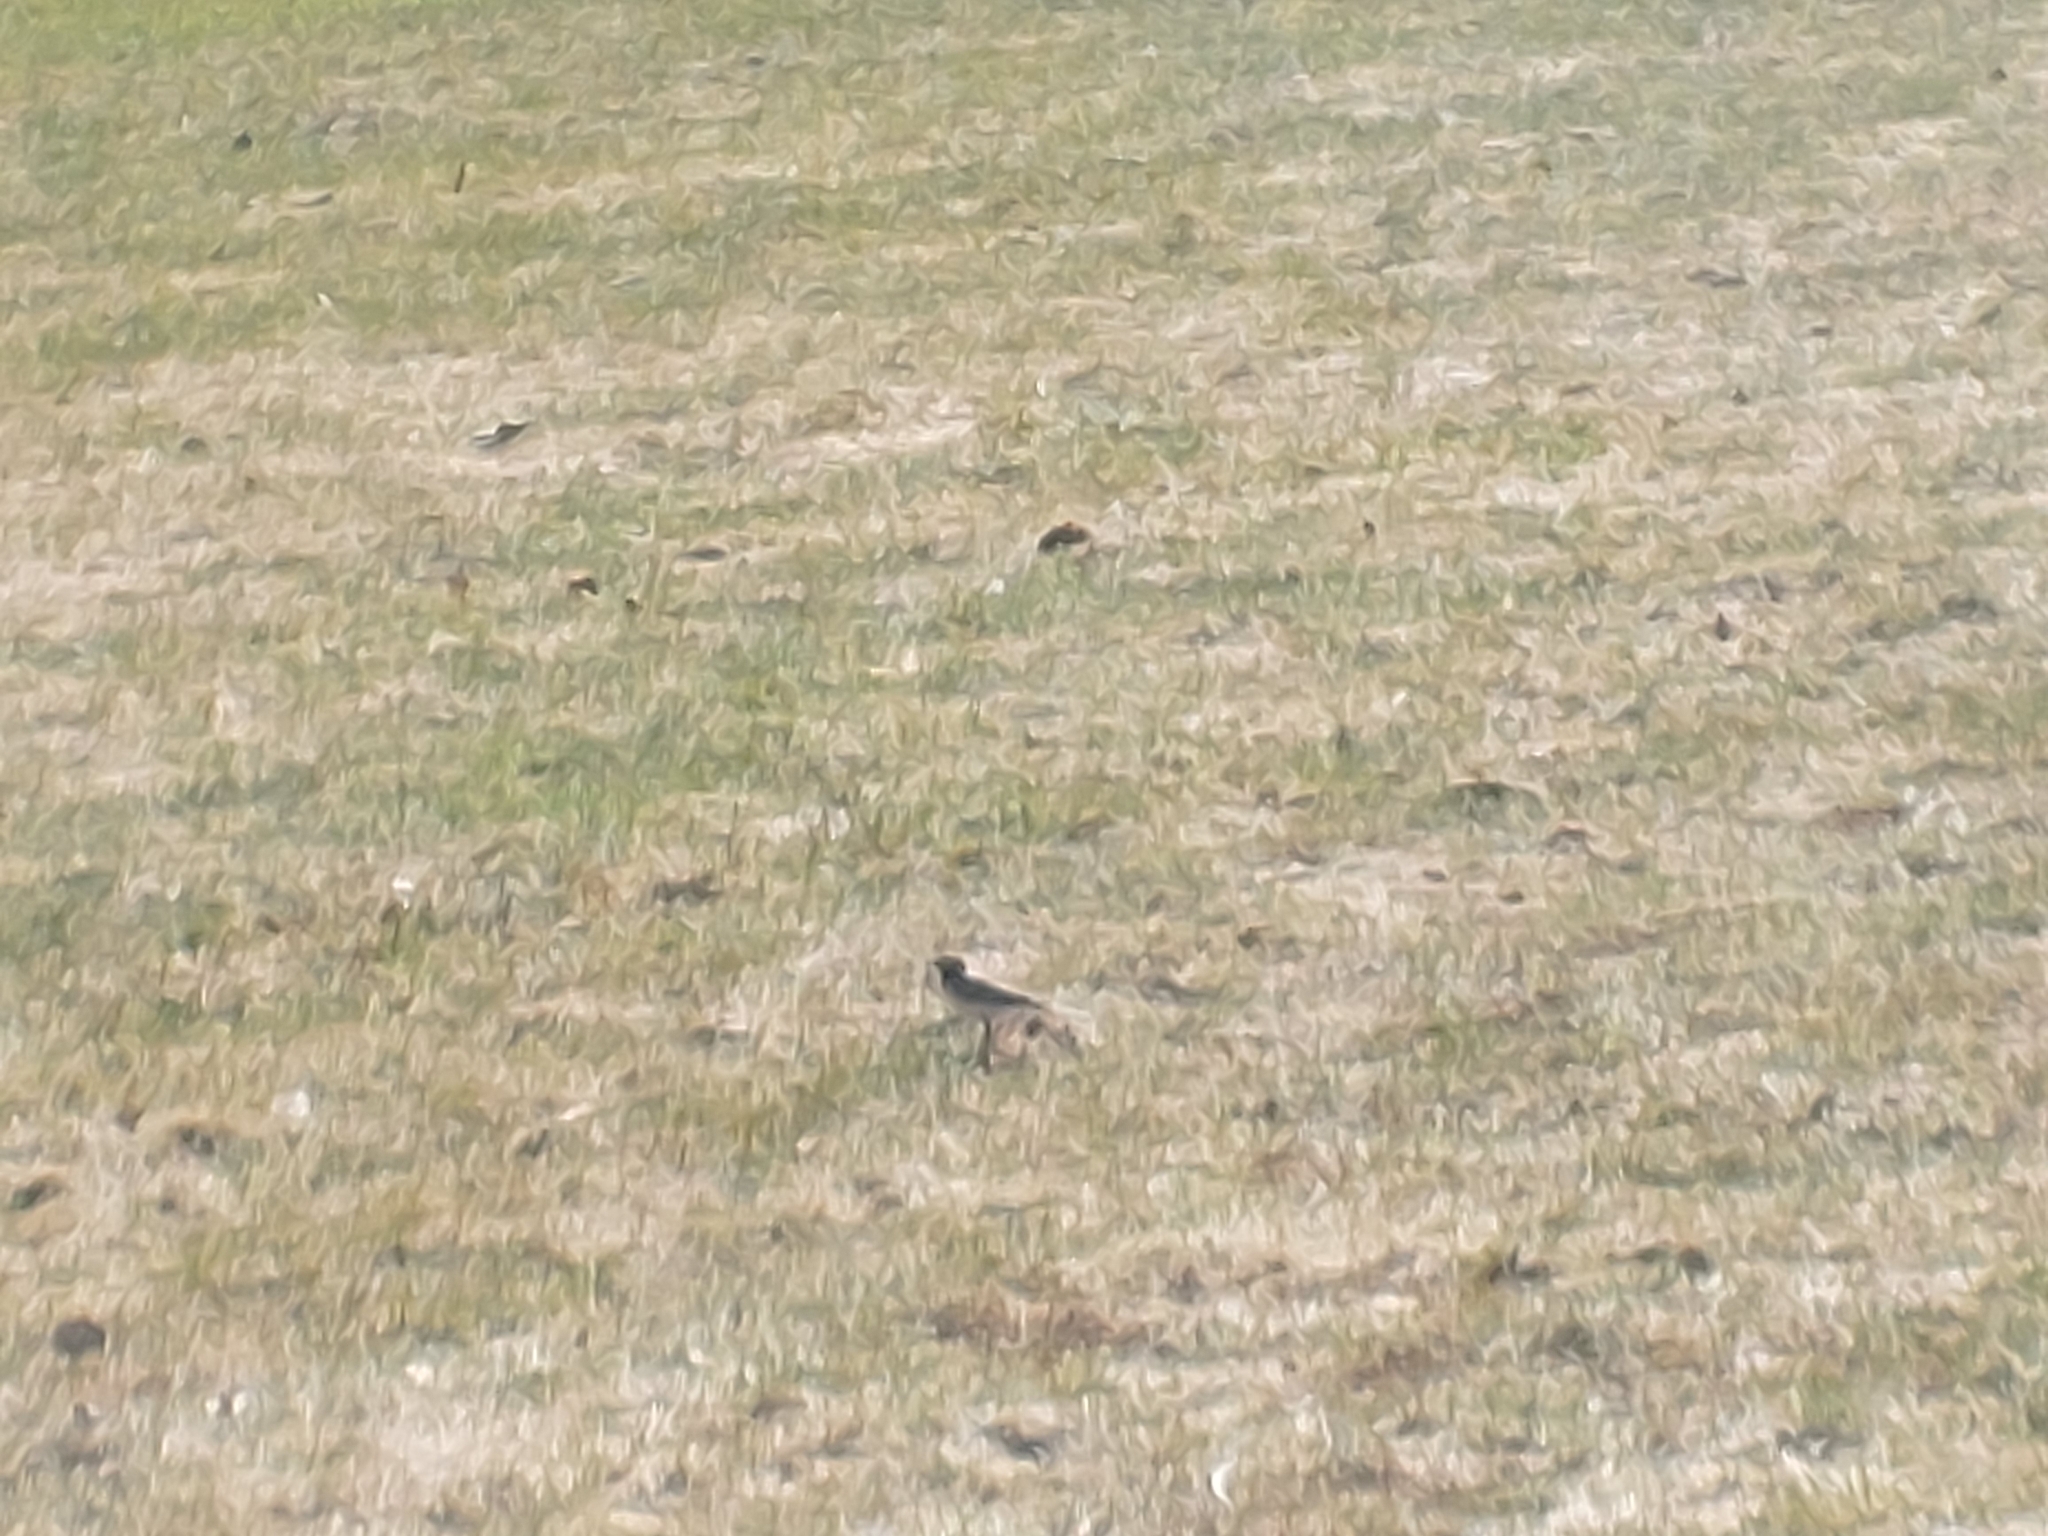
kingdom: Animalia
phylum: Chordata
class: Aves
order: Passeriformes
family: Motacillidae
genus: Motacilla
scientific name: Motacilla alba
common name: White wagtail
